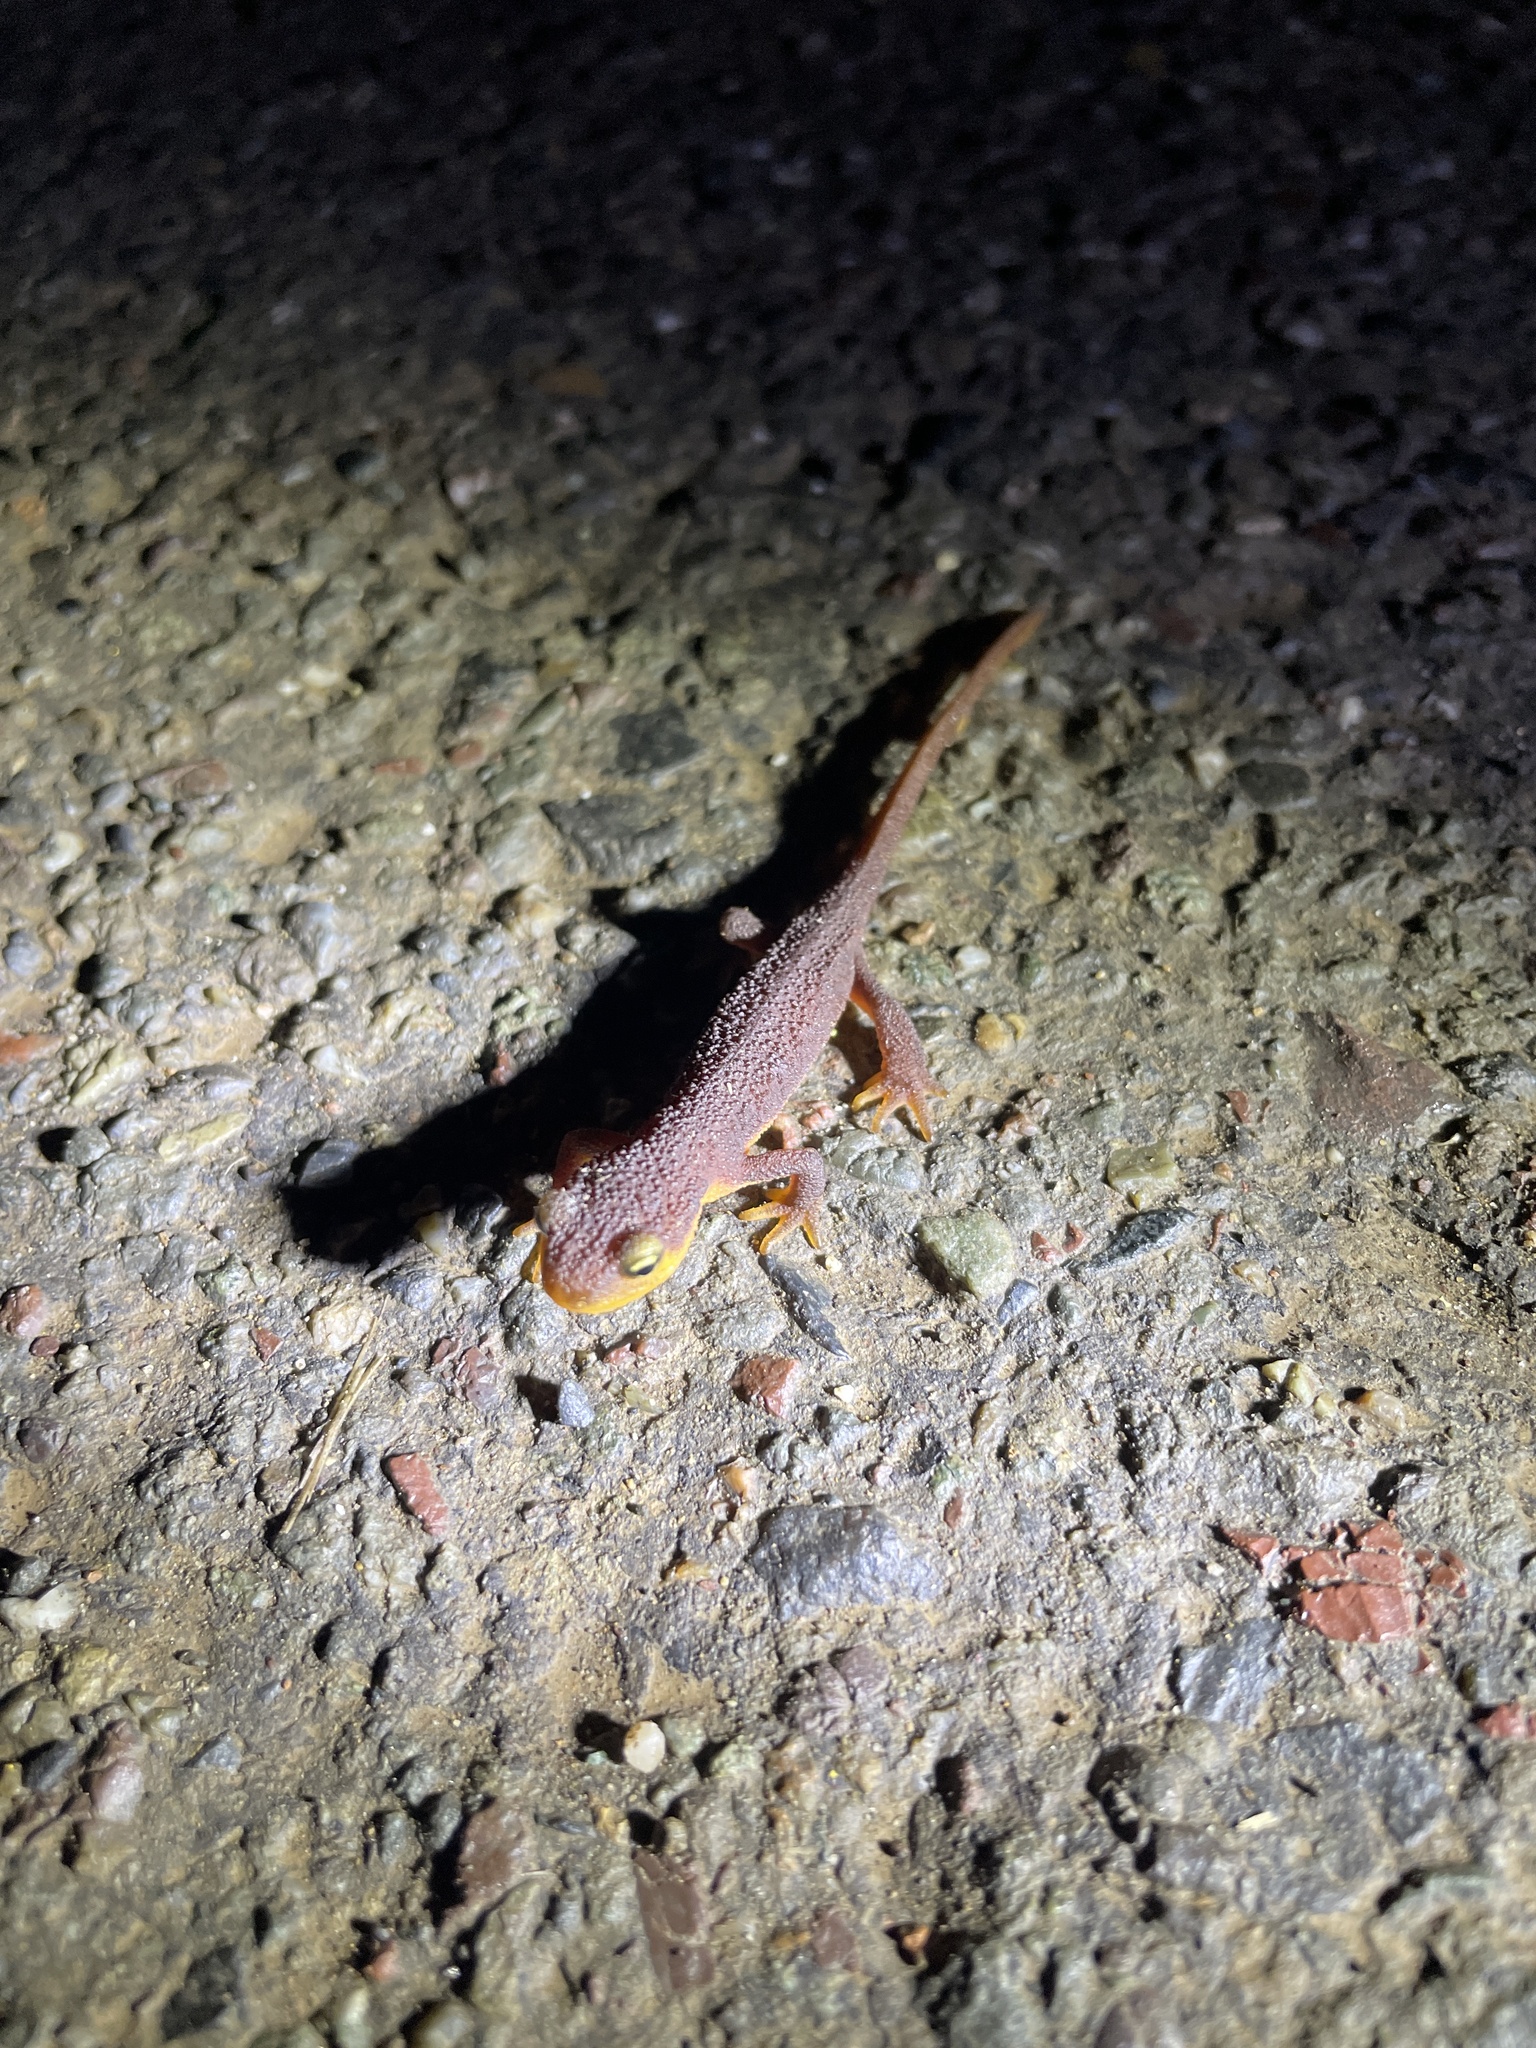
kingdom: Animalia
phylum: Chordata
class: Amphibia
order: Caudata
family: Salamandridae
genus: Taricha
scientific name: Taricha torosa
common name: California newt
